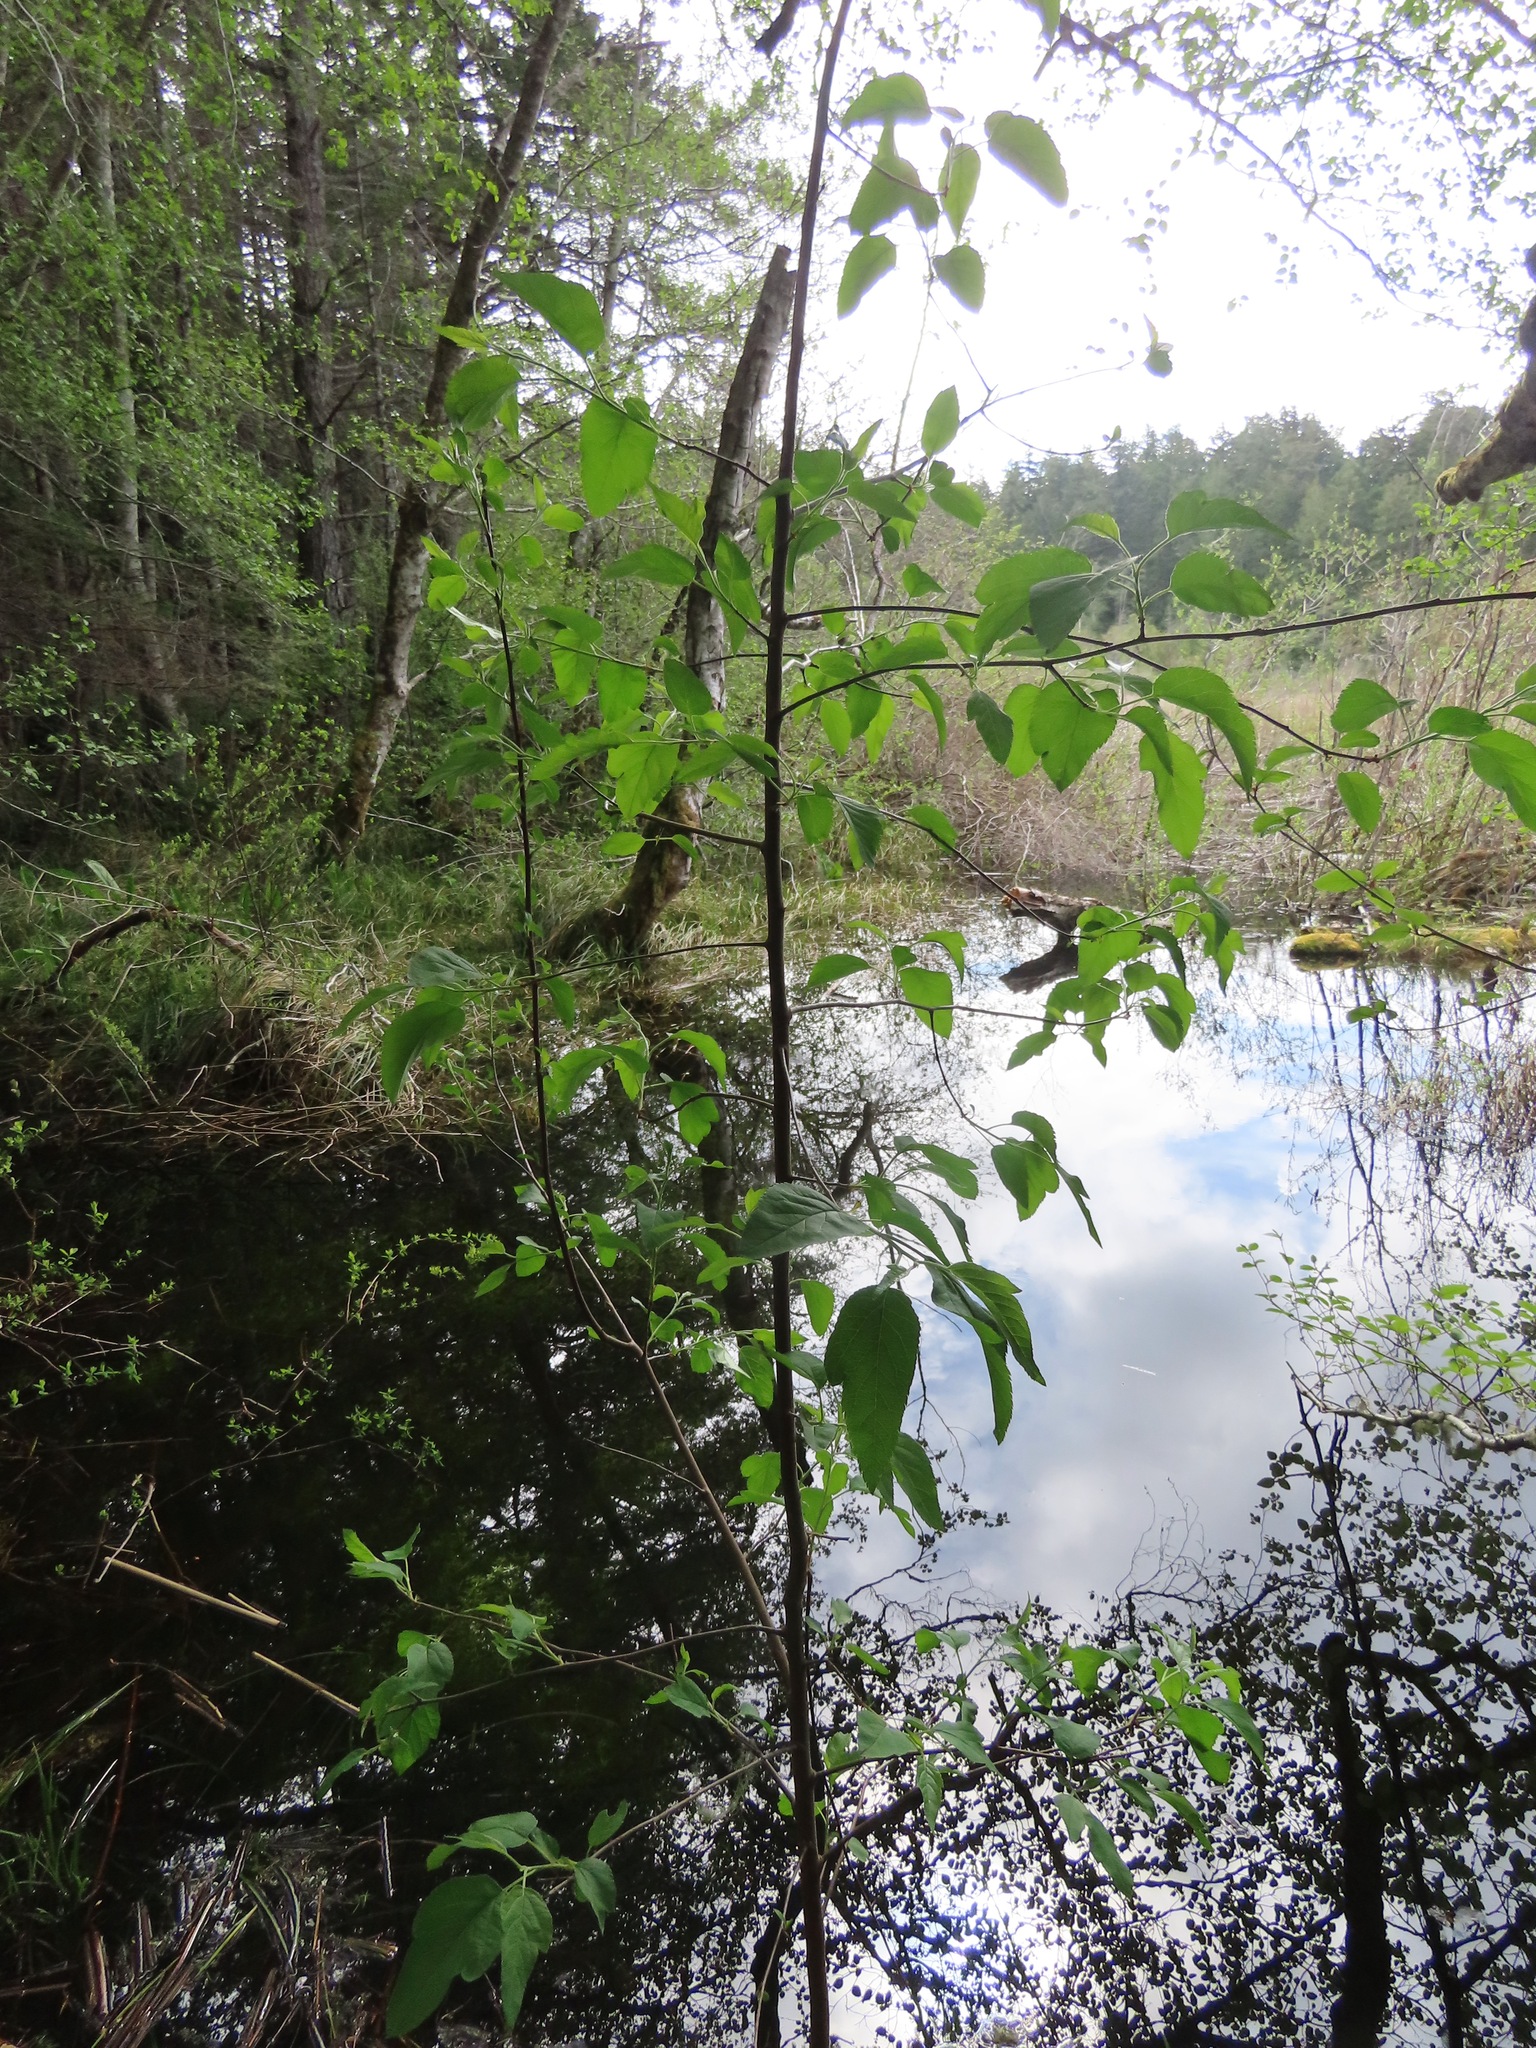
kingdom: Plantae
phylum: Tracheophyta
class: Magnoliopsida
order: Rosales
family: Rosaceae
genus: Malus
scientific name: Malus fusca
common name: Oregon crab apple
